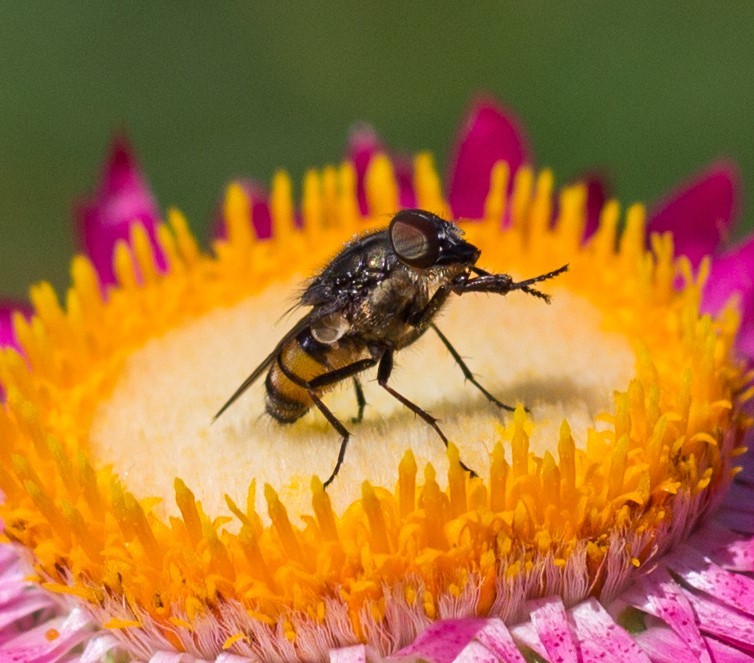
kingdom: Animalia
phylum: Arthropoda
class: Insecta
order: Diptera
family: Calliphoridae
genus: Stomorhina
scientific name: Stomorhina lunata
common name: Locust blowfly
